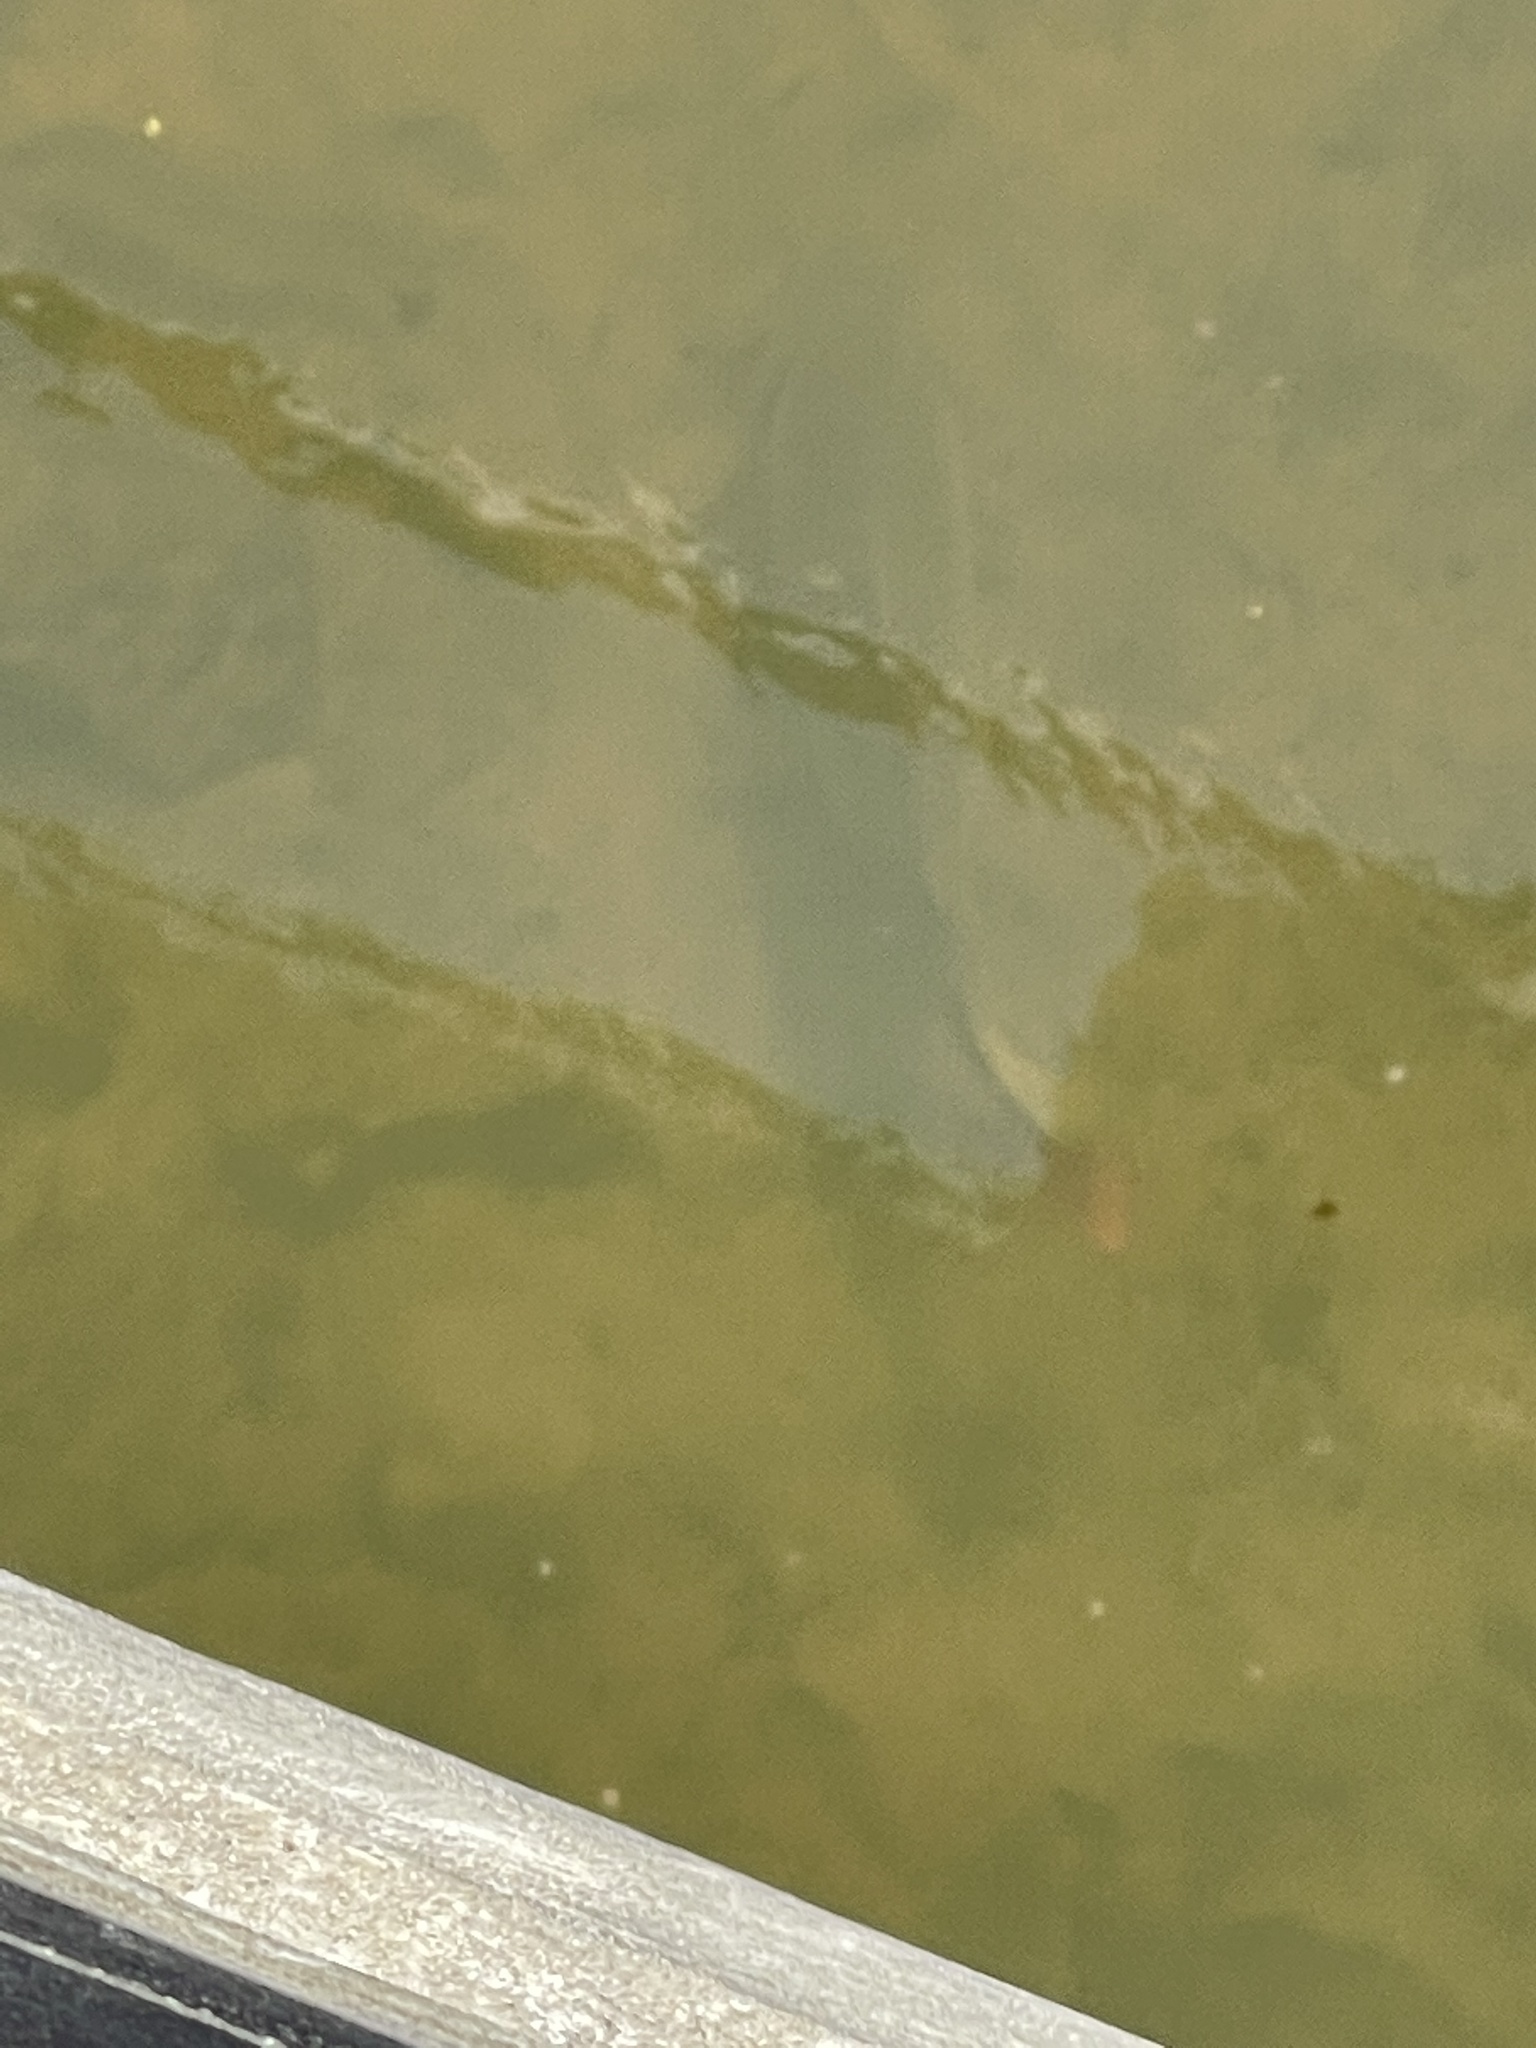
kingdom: Animalia
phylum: Chordata
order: Cypriniformes
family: Cyprinidae
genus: Cyprinus
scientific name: Cyprinus carpio
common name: Common carp
